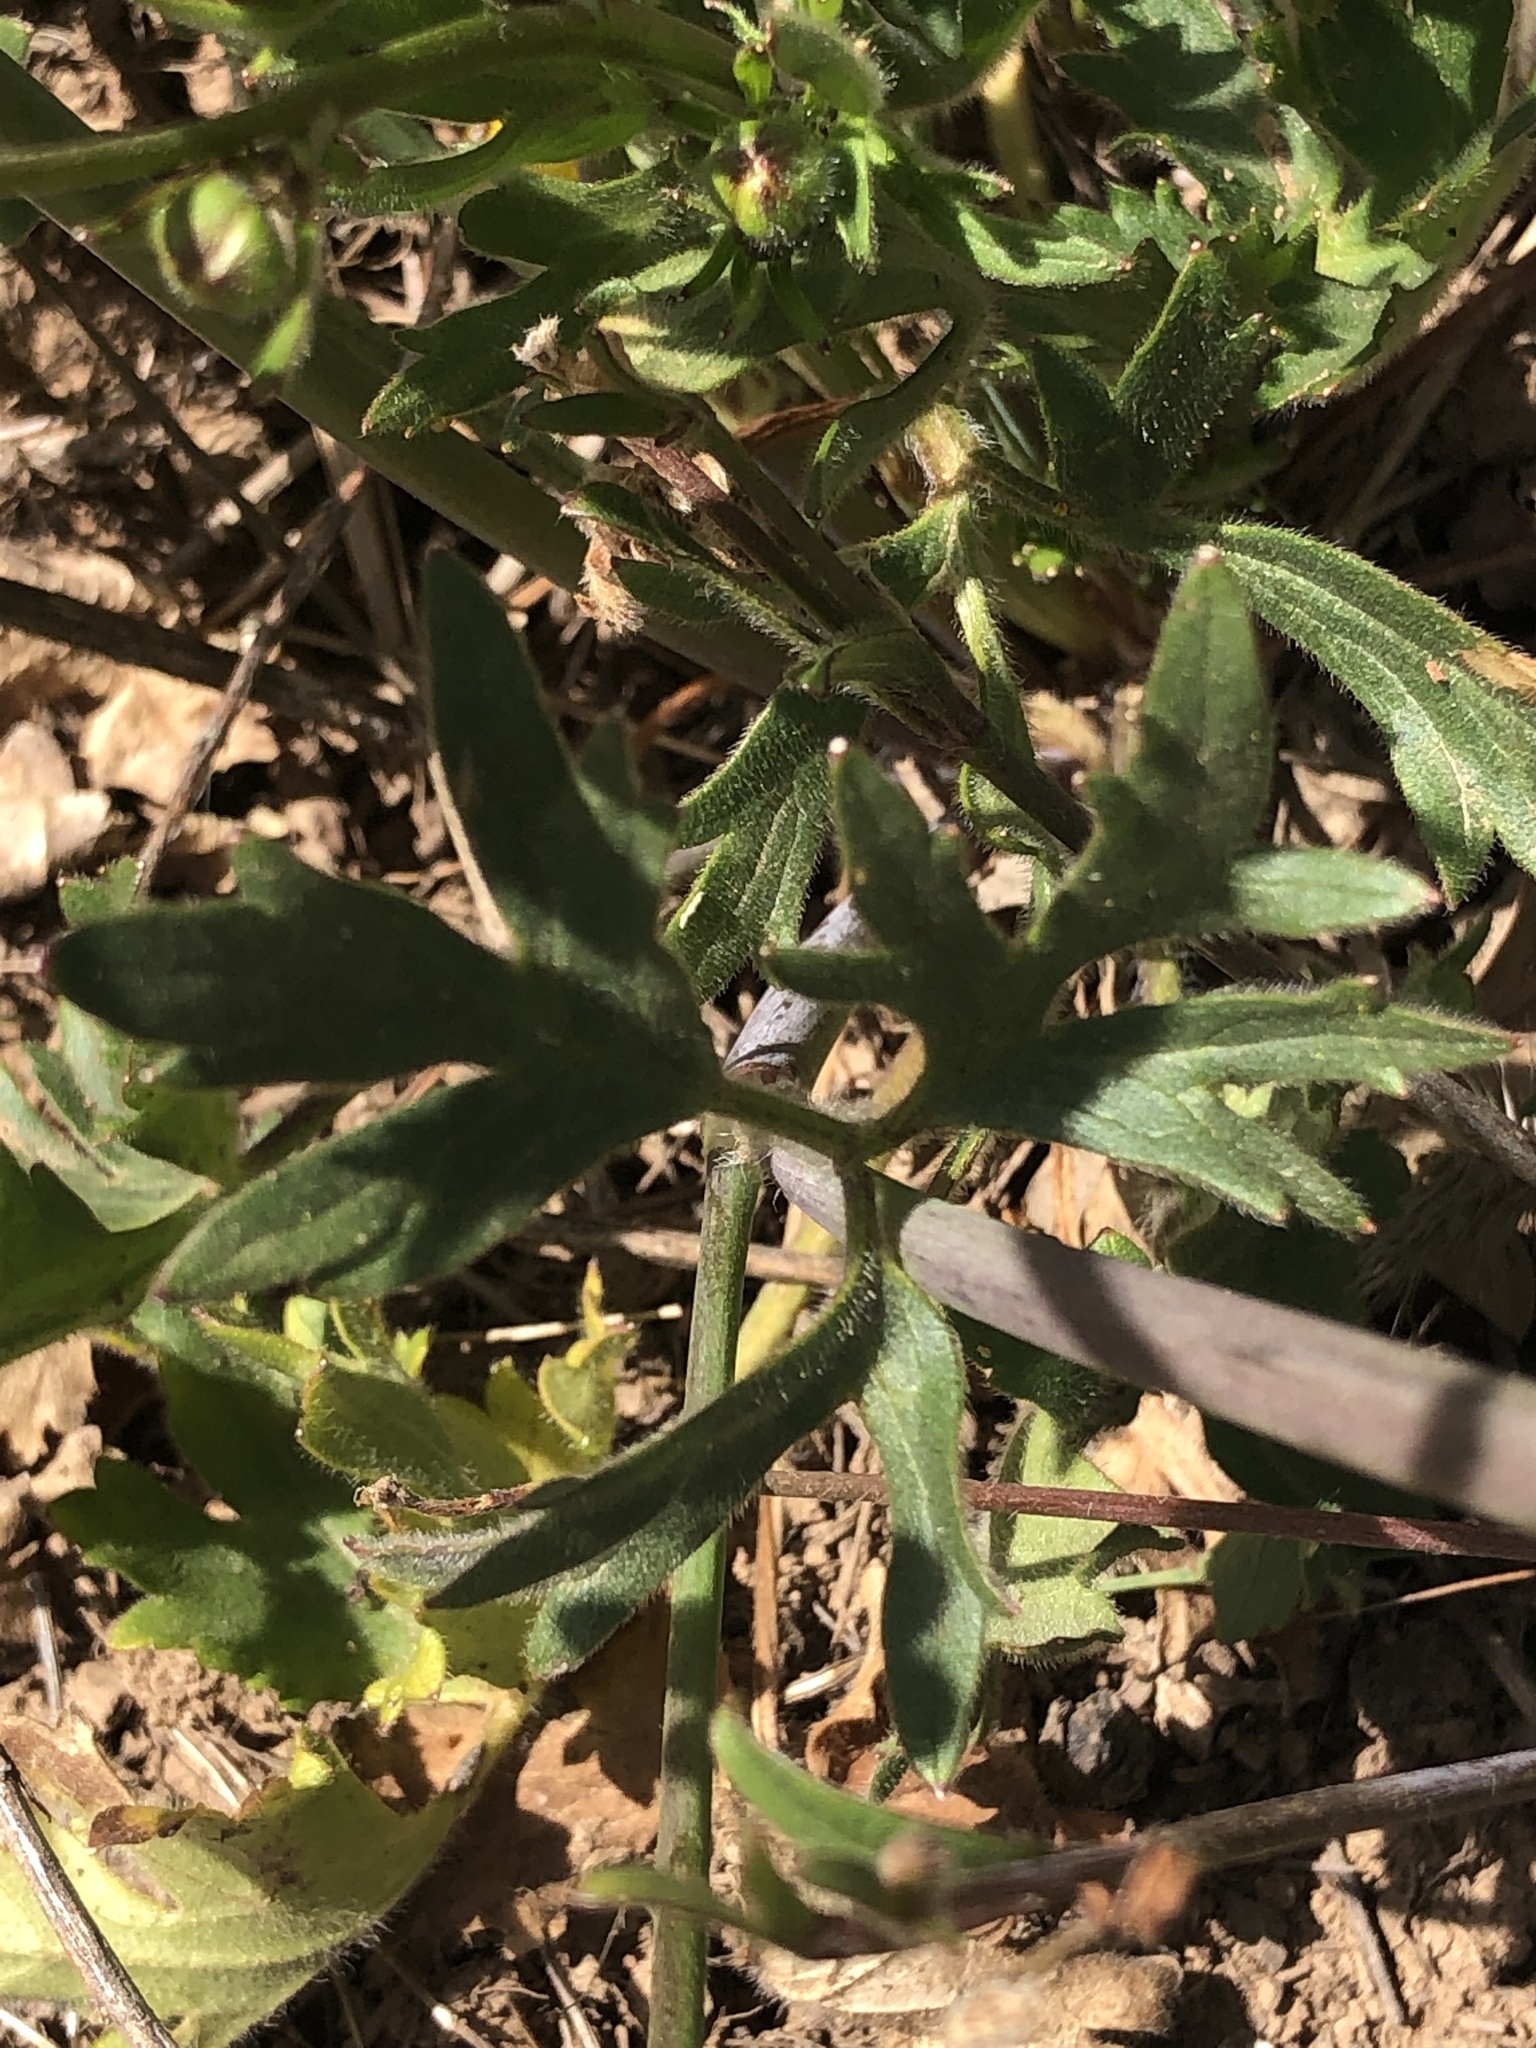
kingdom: Plantae
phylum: Tracheophyta
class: Magnoliopsida
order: Ranunculales
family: Ranunculaceae
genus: Ranunculus
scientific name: Ranunculus californicus
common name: California buttercup
